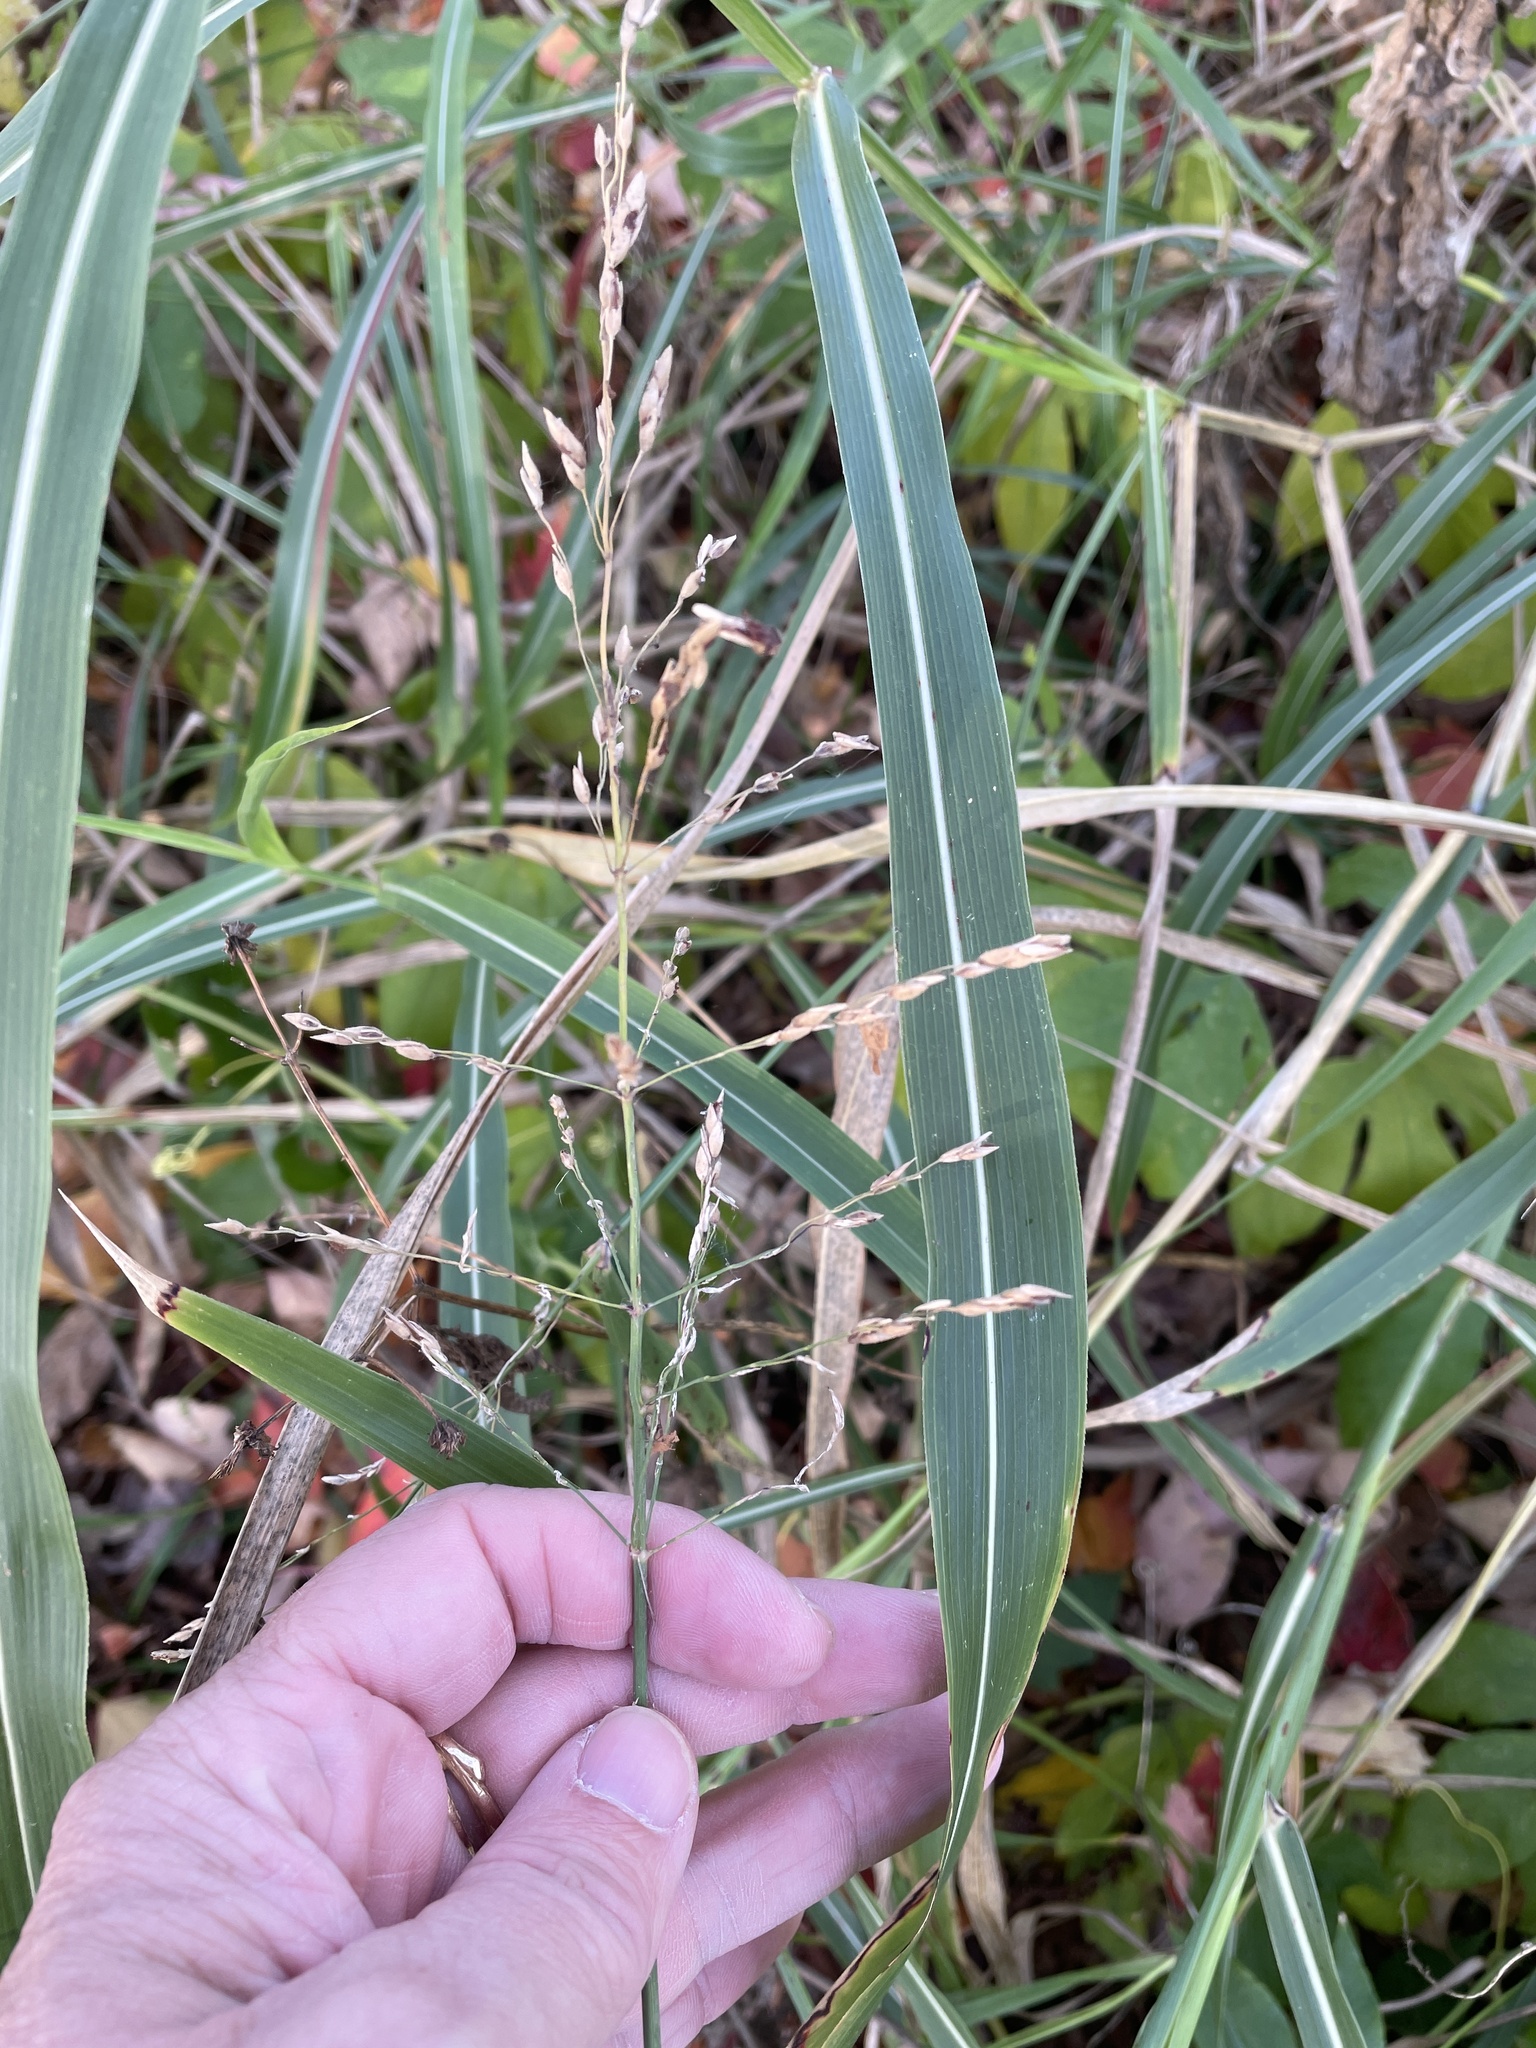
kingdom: Plantae
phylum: Tracheophyta
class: Liliopsida
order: Poales
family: Poaceae
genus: Sorghum
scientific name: Sorghum halepense
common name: Johnson-grass
